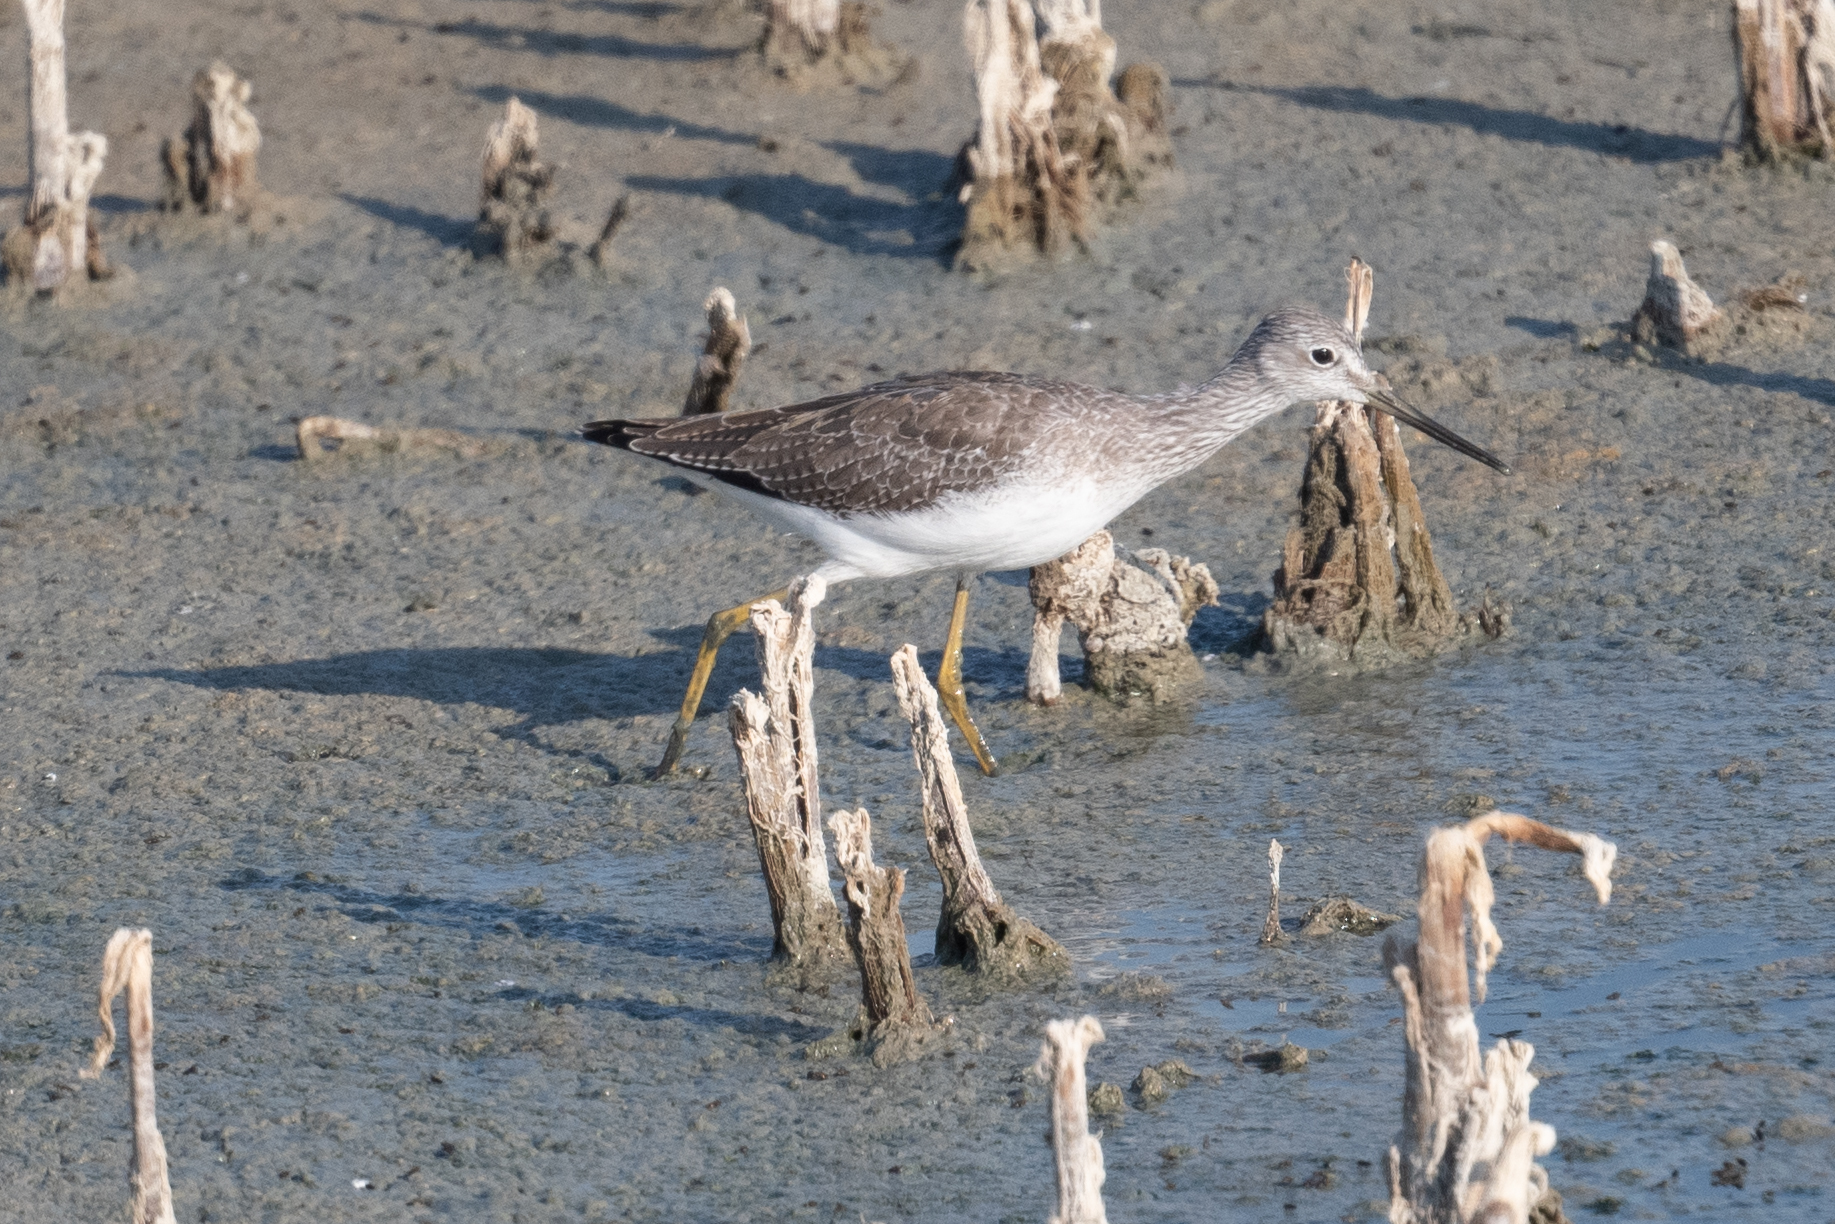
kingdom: Animalia
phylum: Chordata
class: Aves
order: Charadriiformes
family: Scolopacidae
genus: Tringa
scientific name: Tringa melanoleuca
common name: Greater yellowlegs
